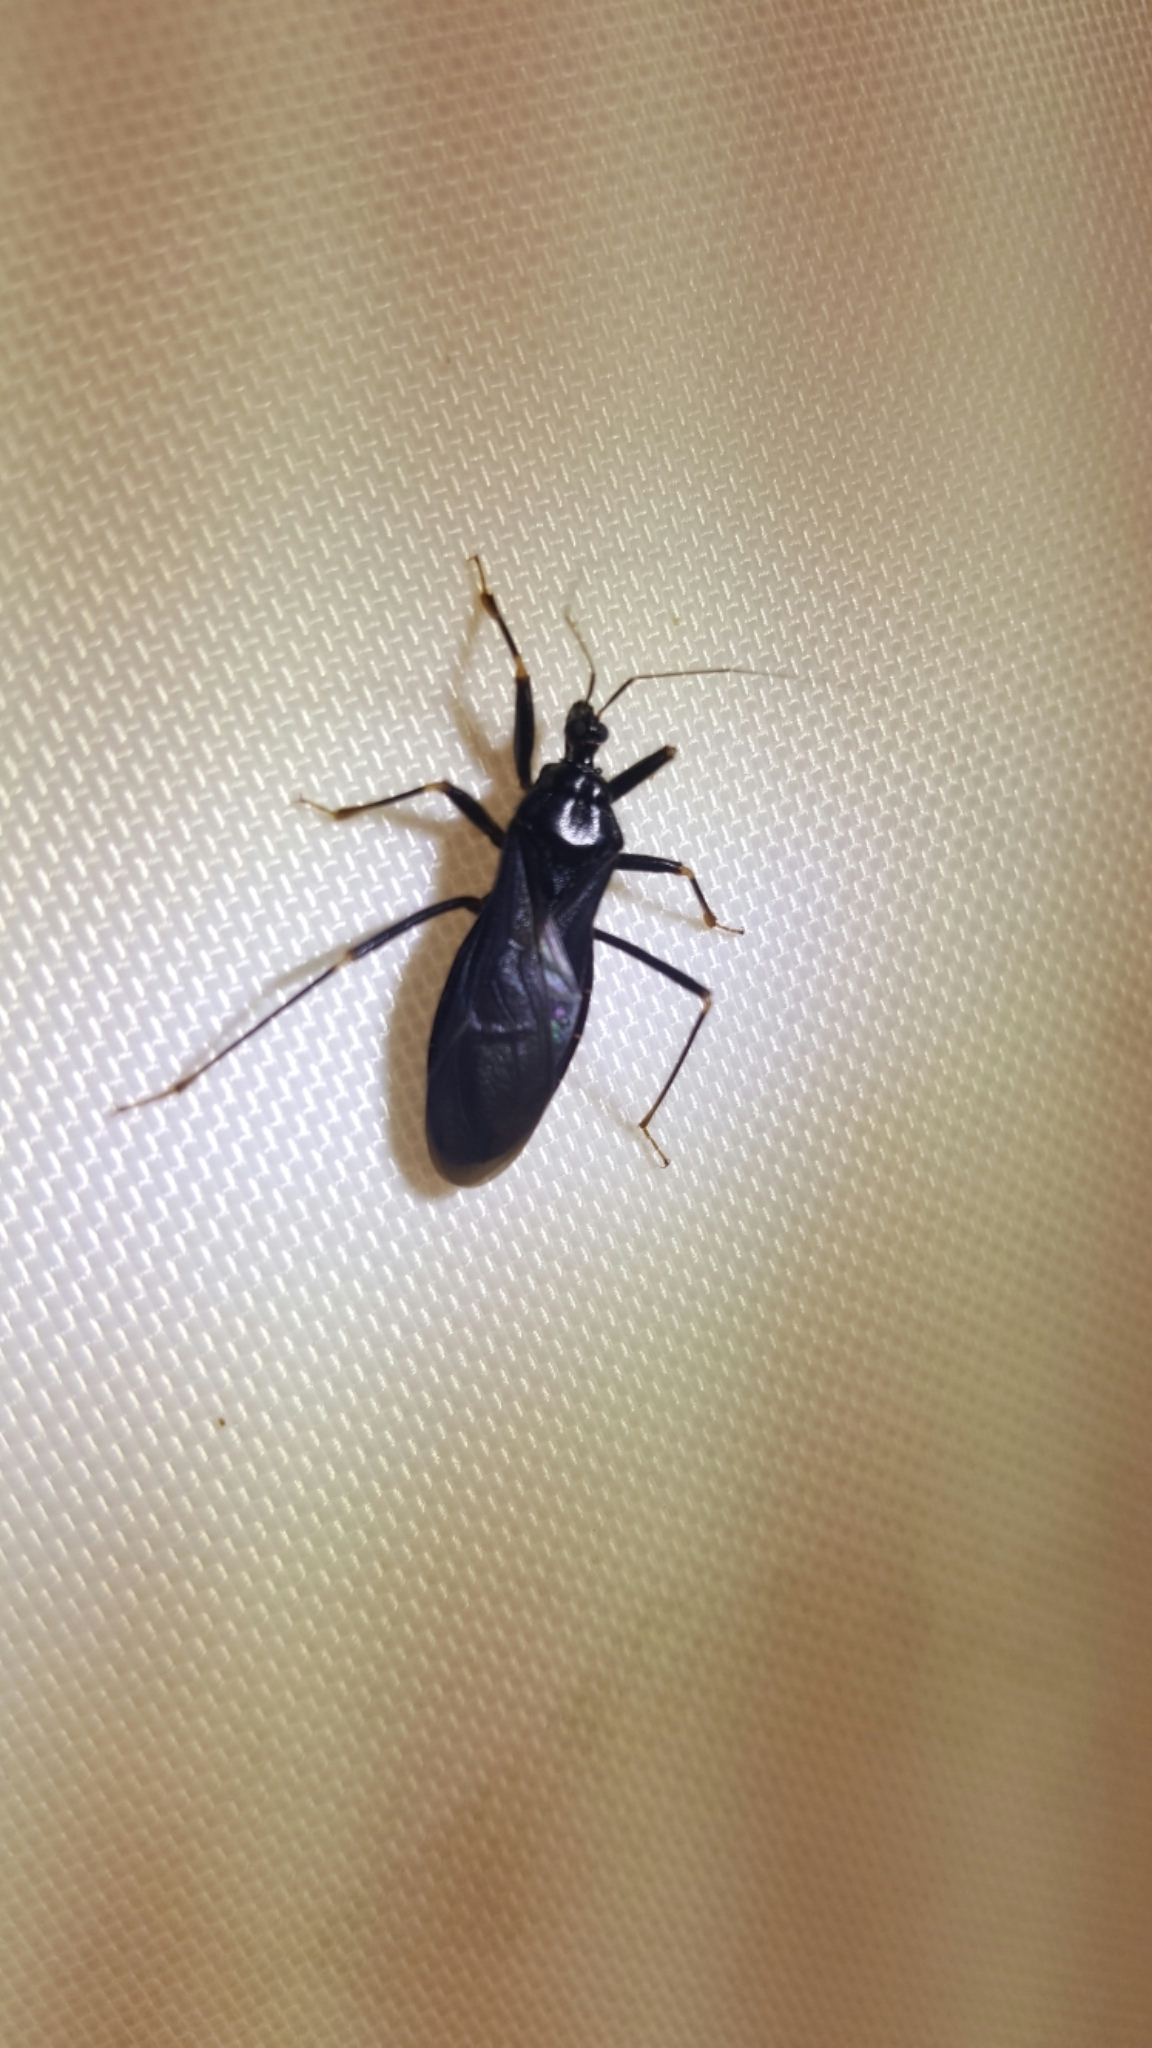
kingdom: Animalia
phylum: Arthropoda
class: Insecta
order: Hemiptera
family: Reduviidae
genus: Reduvius
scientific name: Reduvius personatus
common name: Masked hunter
